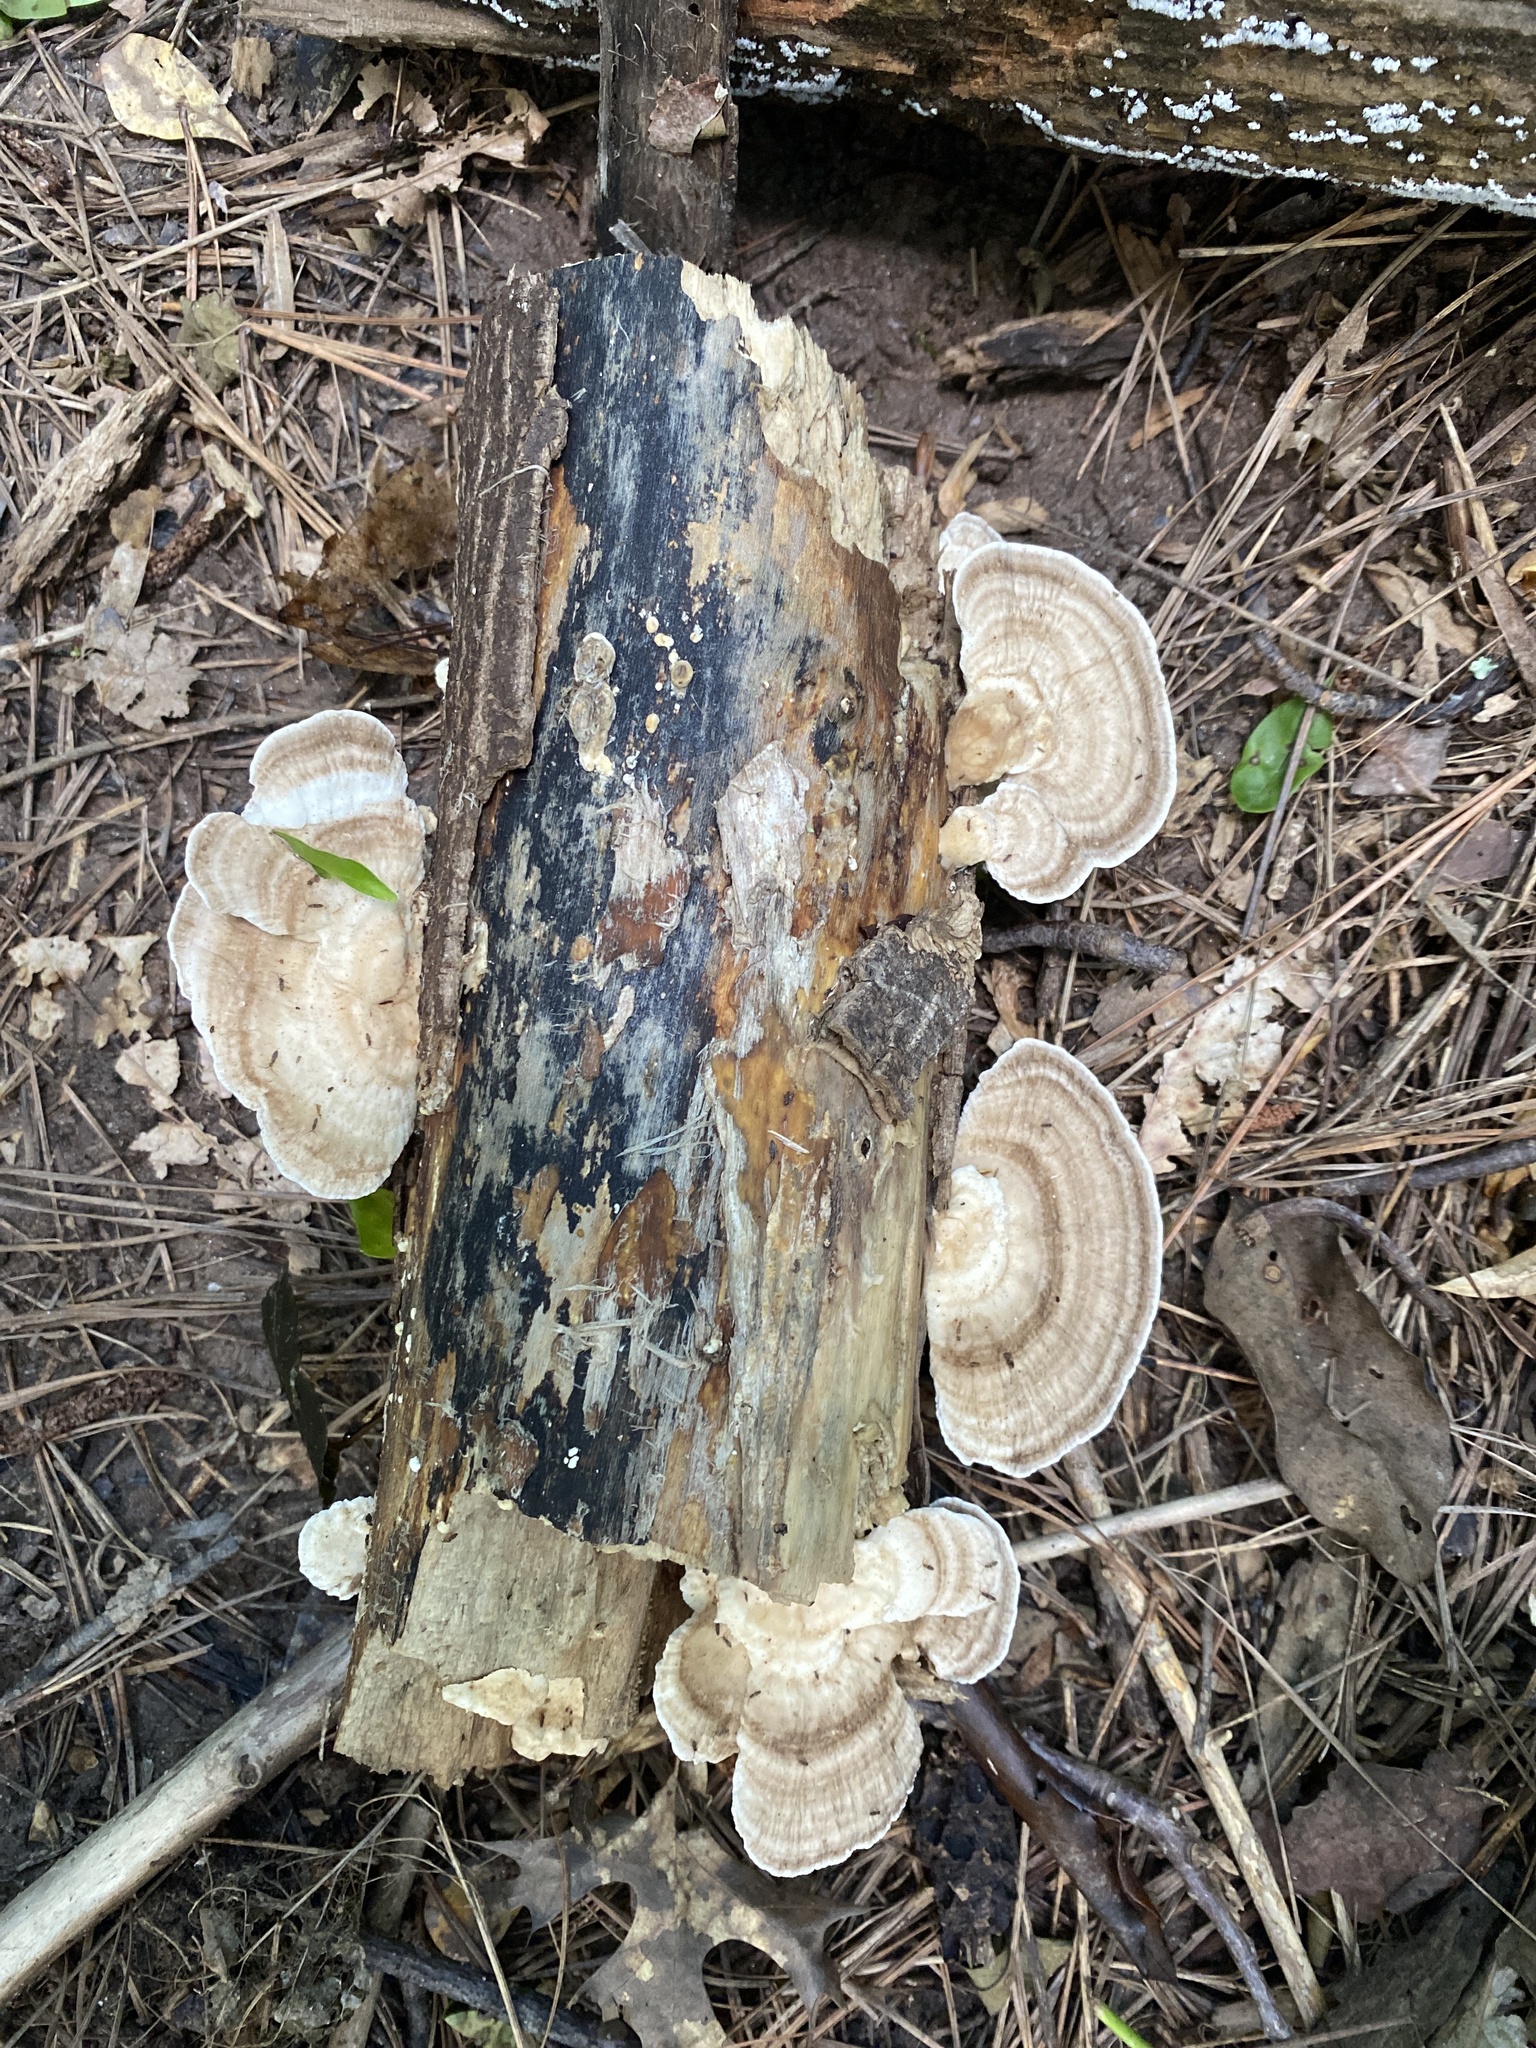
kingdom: Fungi
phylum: Basidiomycota
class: Agaricomycetes
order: Polyporales
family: Polyporaceae
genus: Trametes
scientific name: Trametes lactinea
